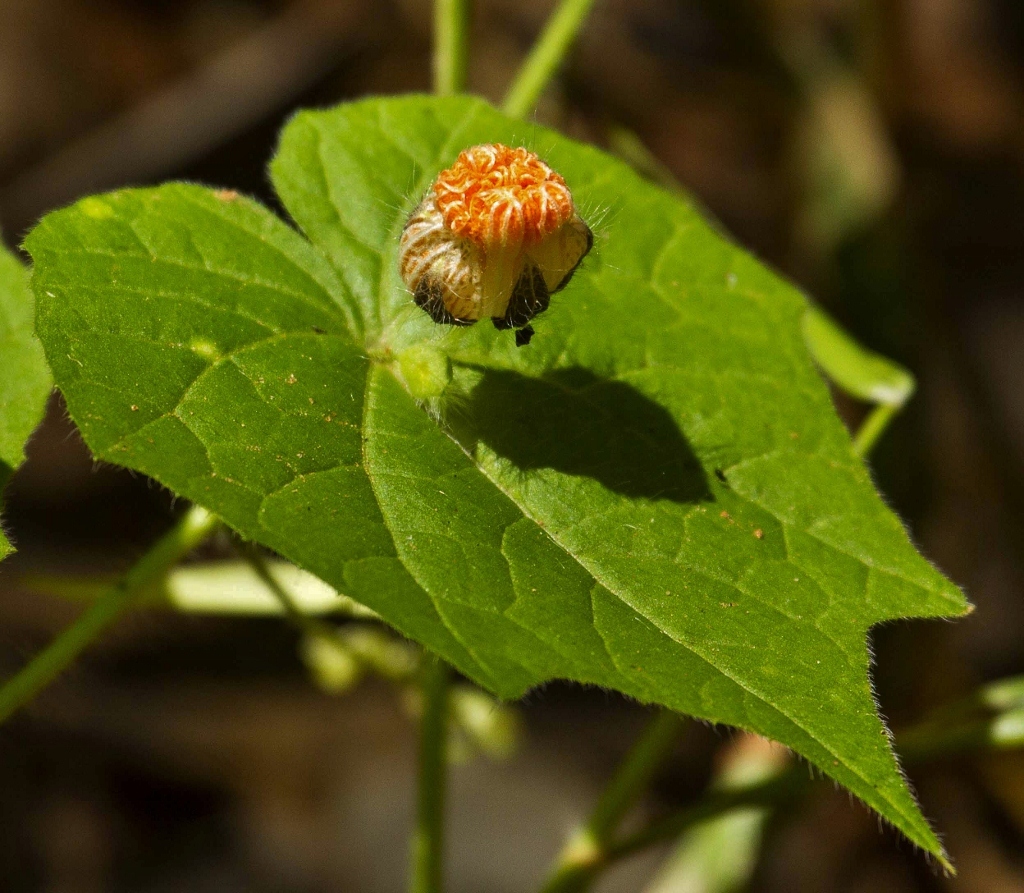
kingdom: Plantae
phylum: Tracheophyta
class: Magnoliopsida
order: Cucurbitales
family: Cucurbitaceae
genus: Momordica
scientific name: Momordica kirkii
